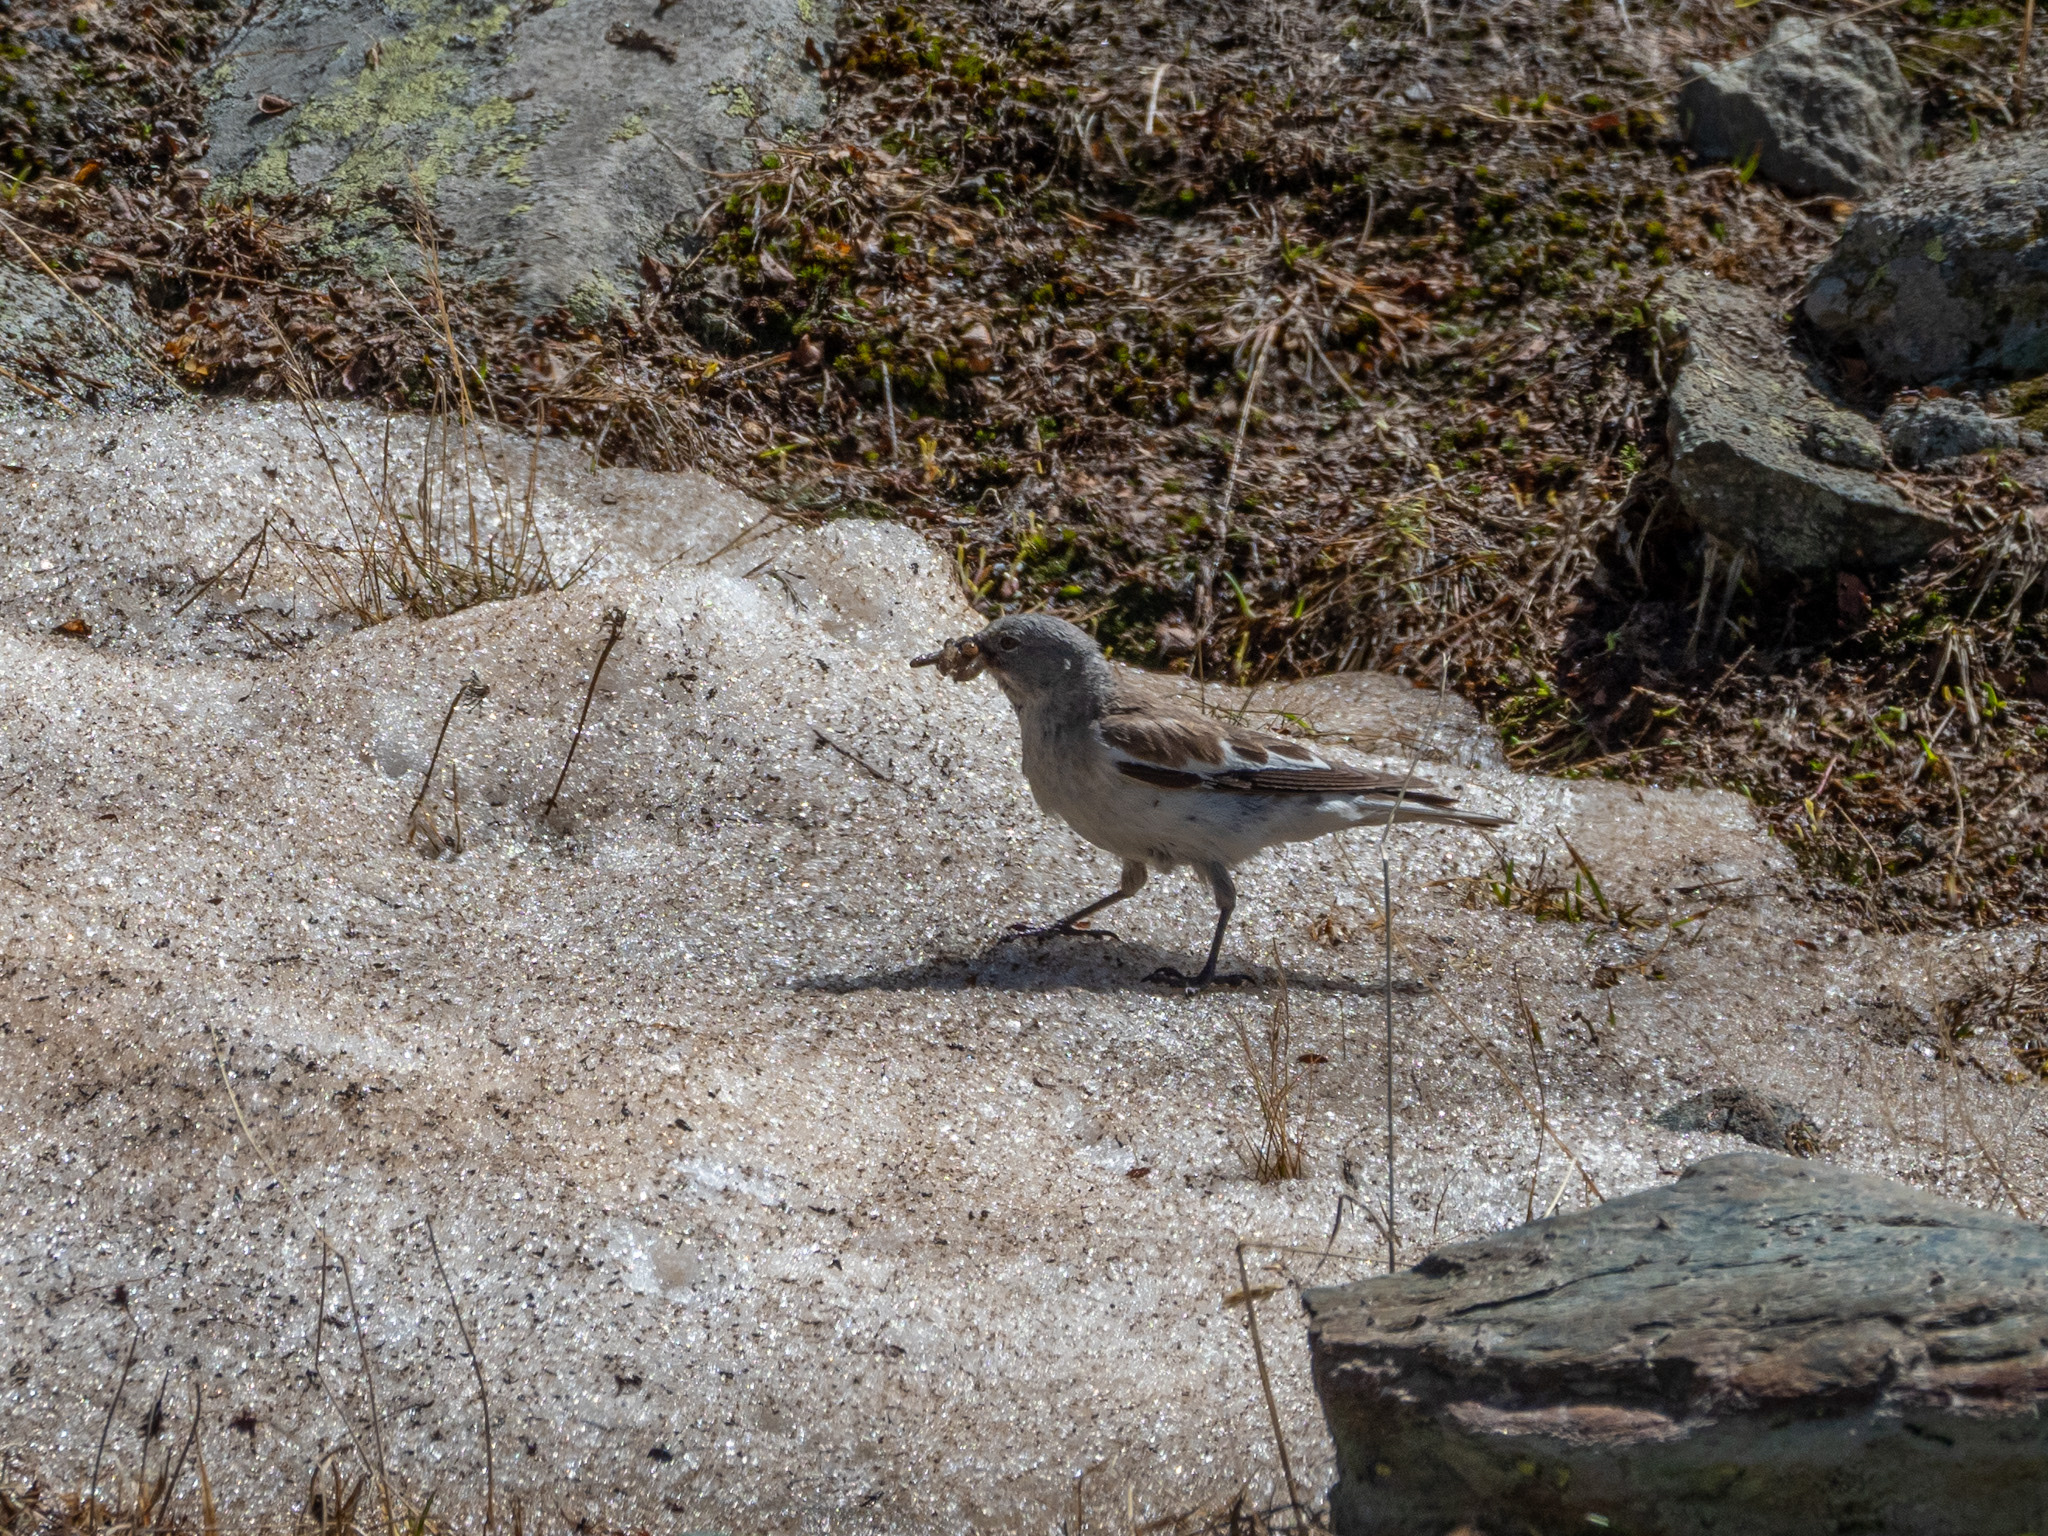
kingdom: Animalia
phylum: Chordata
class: Aves
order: Passeriformes
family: Passeridae
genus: Montifringilla
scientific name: Montifringilla nivalis
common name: White-winged snowfinch
